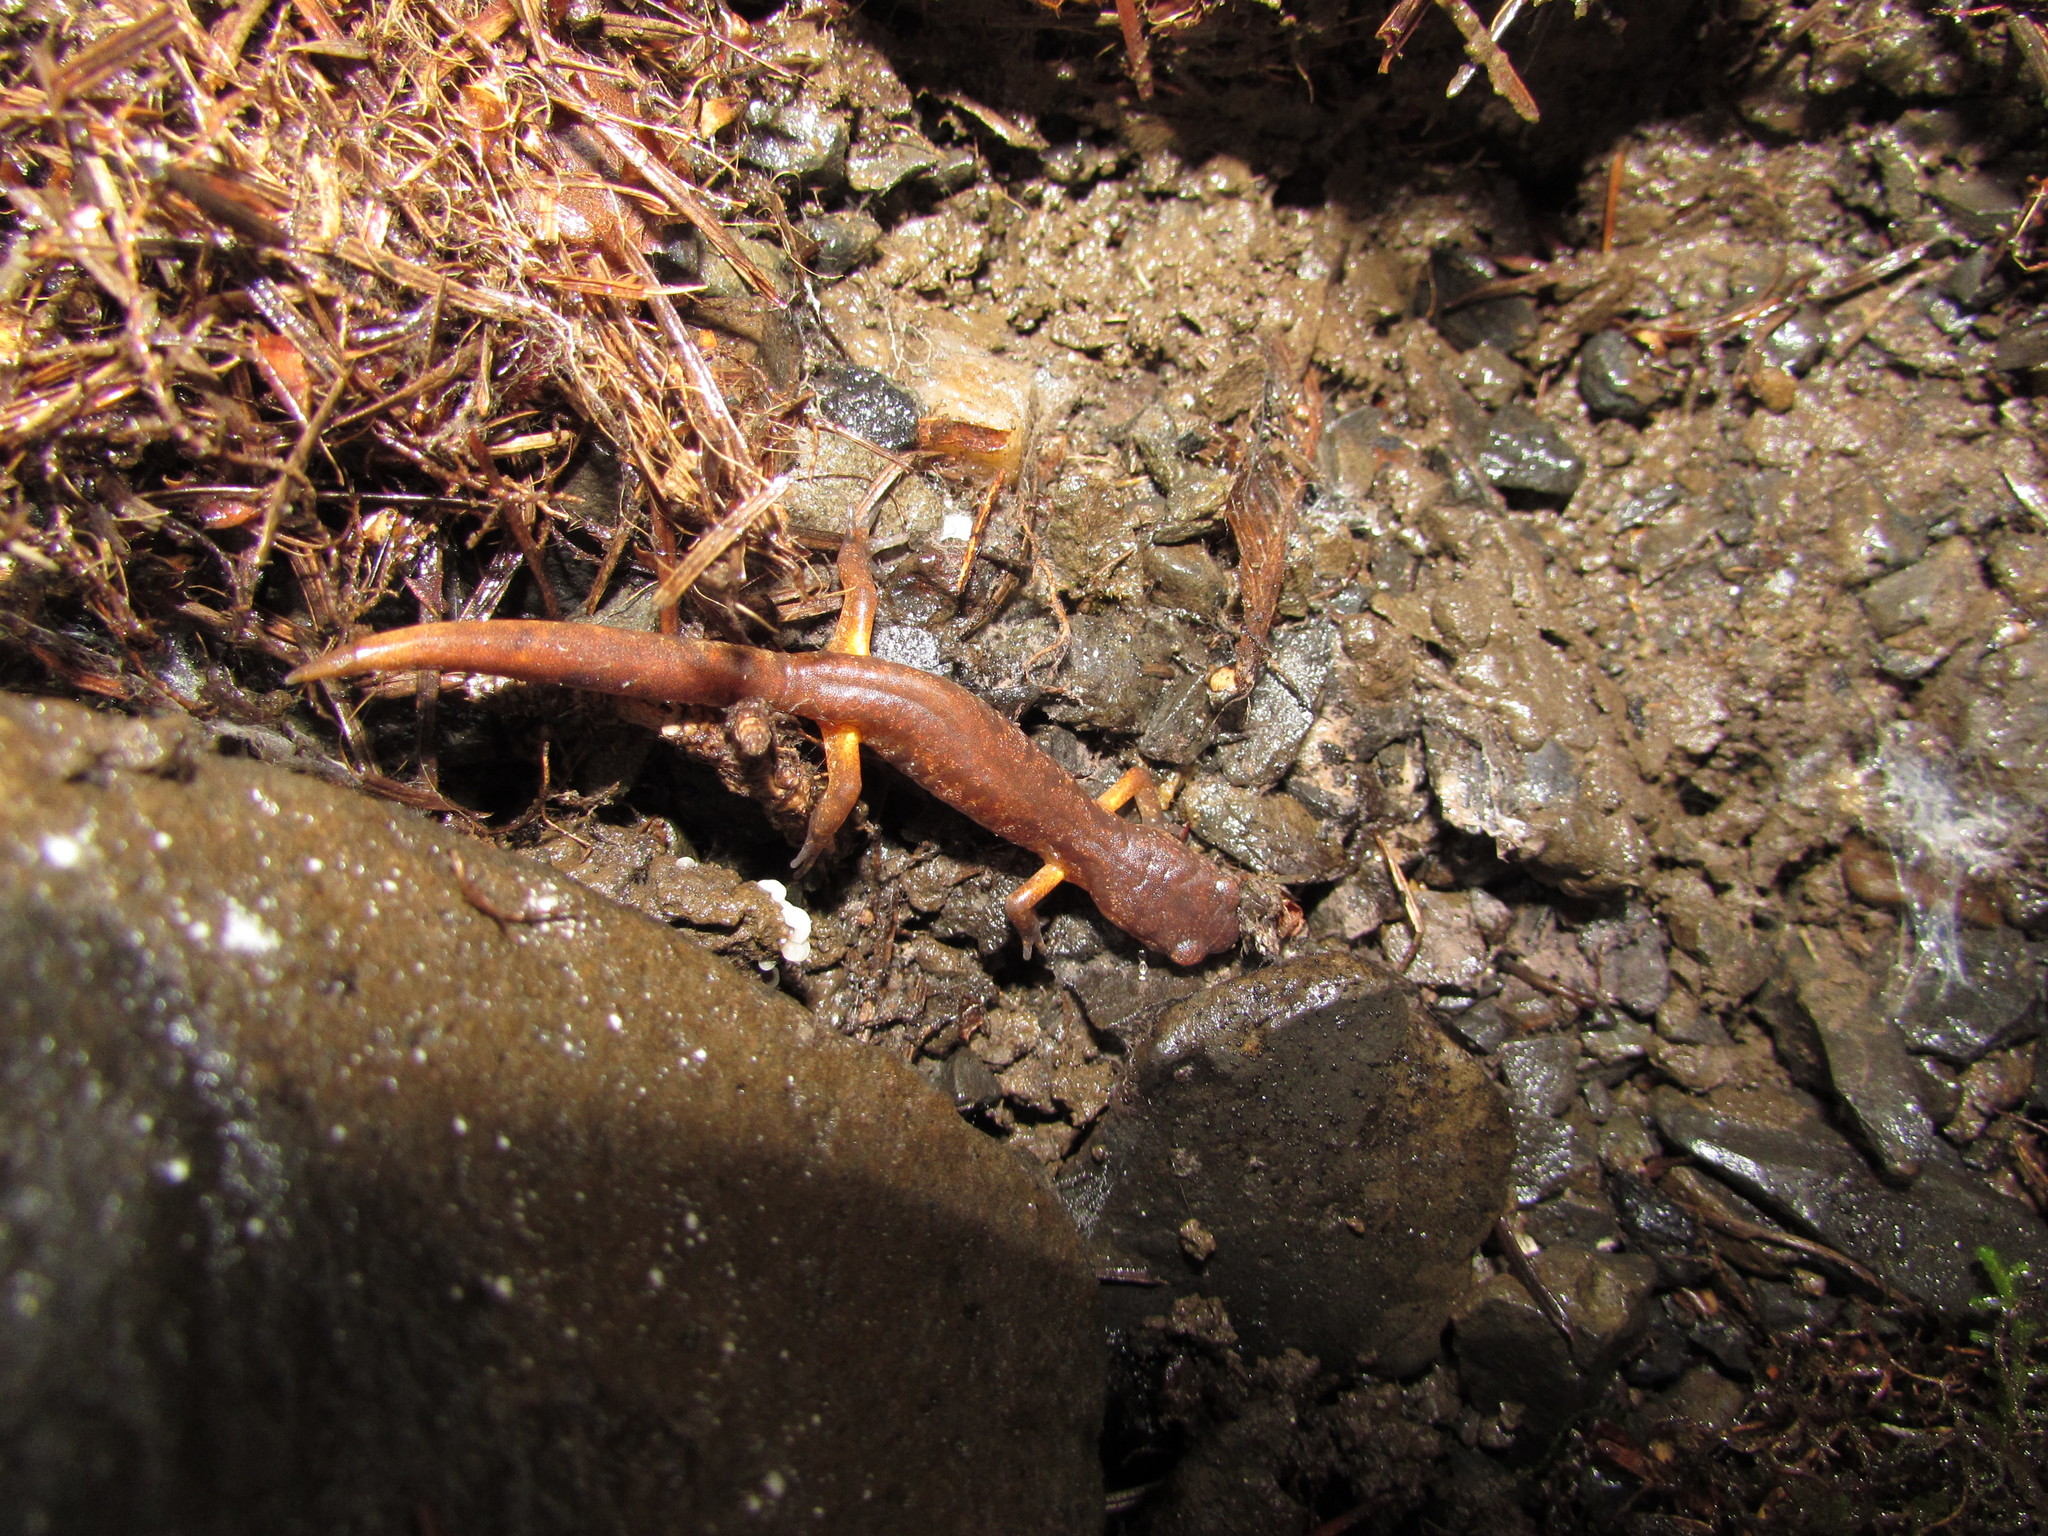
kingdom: Animalia
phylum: Chordata
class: Amphibia
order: Caudata
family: Plethodontidae
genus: Ensatina
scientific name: Ensatina eschscholtzii
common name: Ensatina
